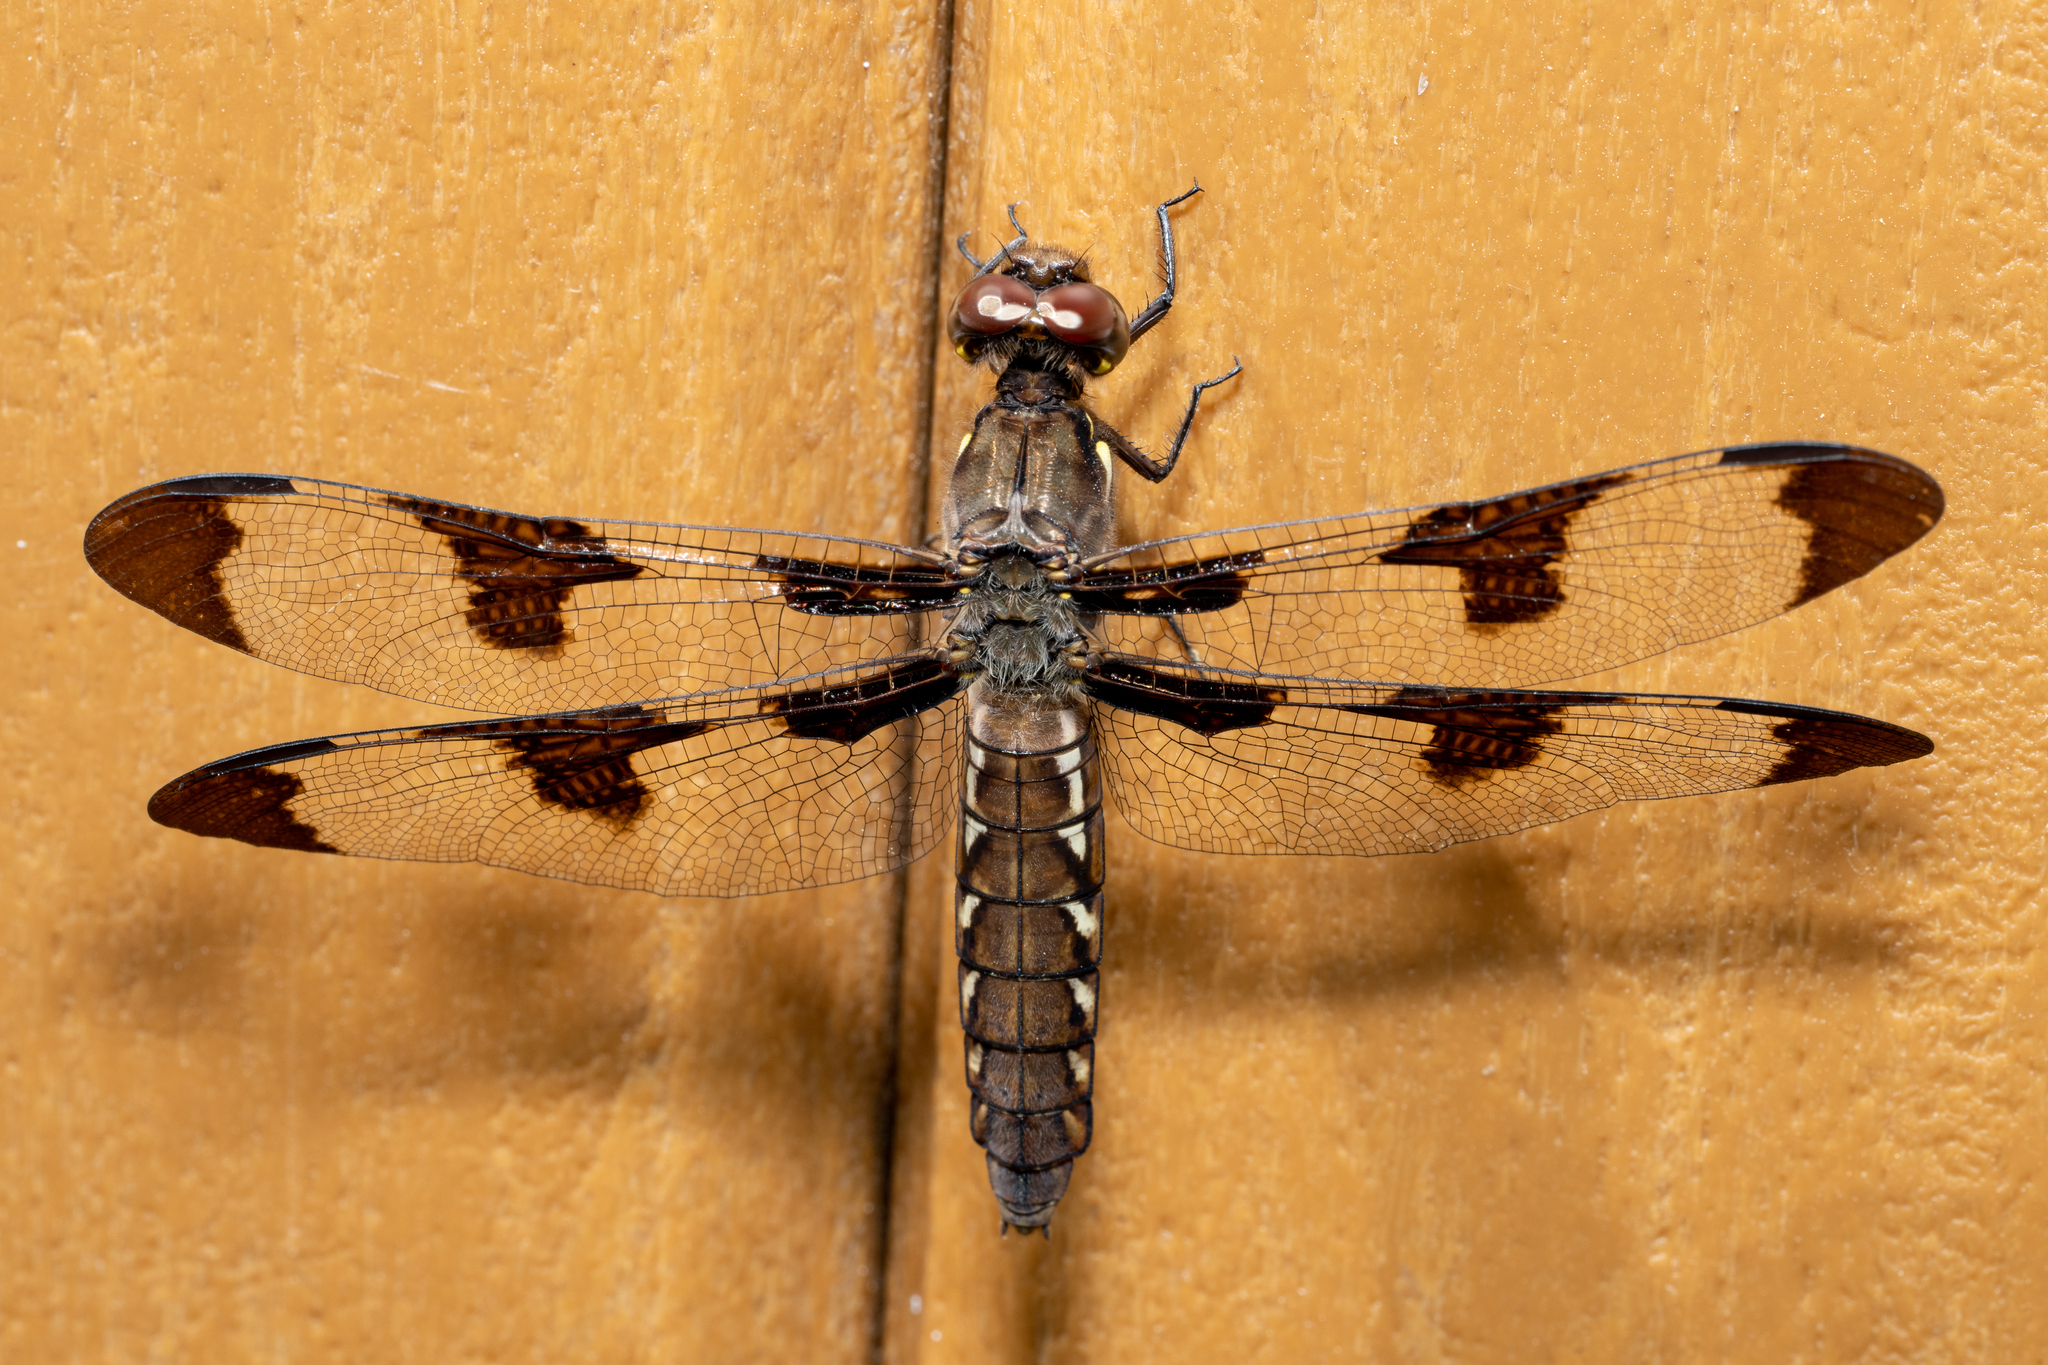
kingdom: Animalia
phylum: Arthropoda
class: Insecta
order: Odonata
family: Libellulidae
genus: Plathemis
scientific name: Plathemis lydia
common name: Common whitetail
